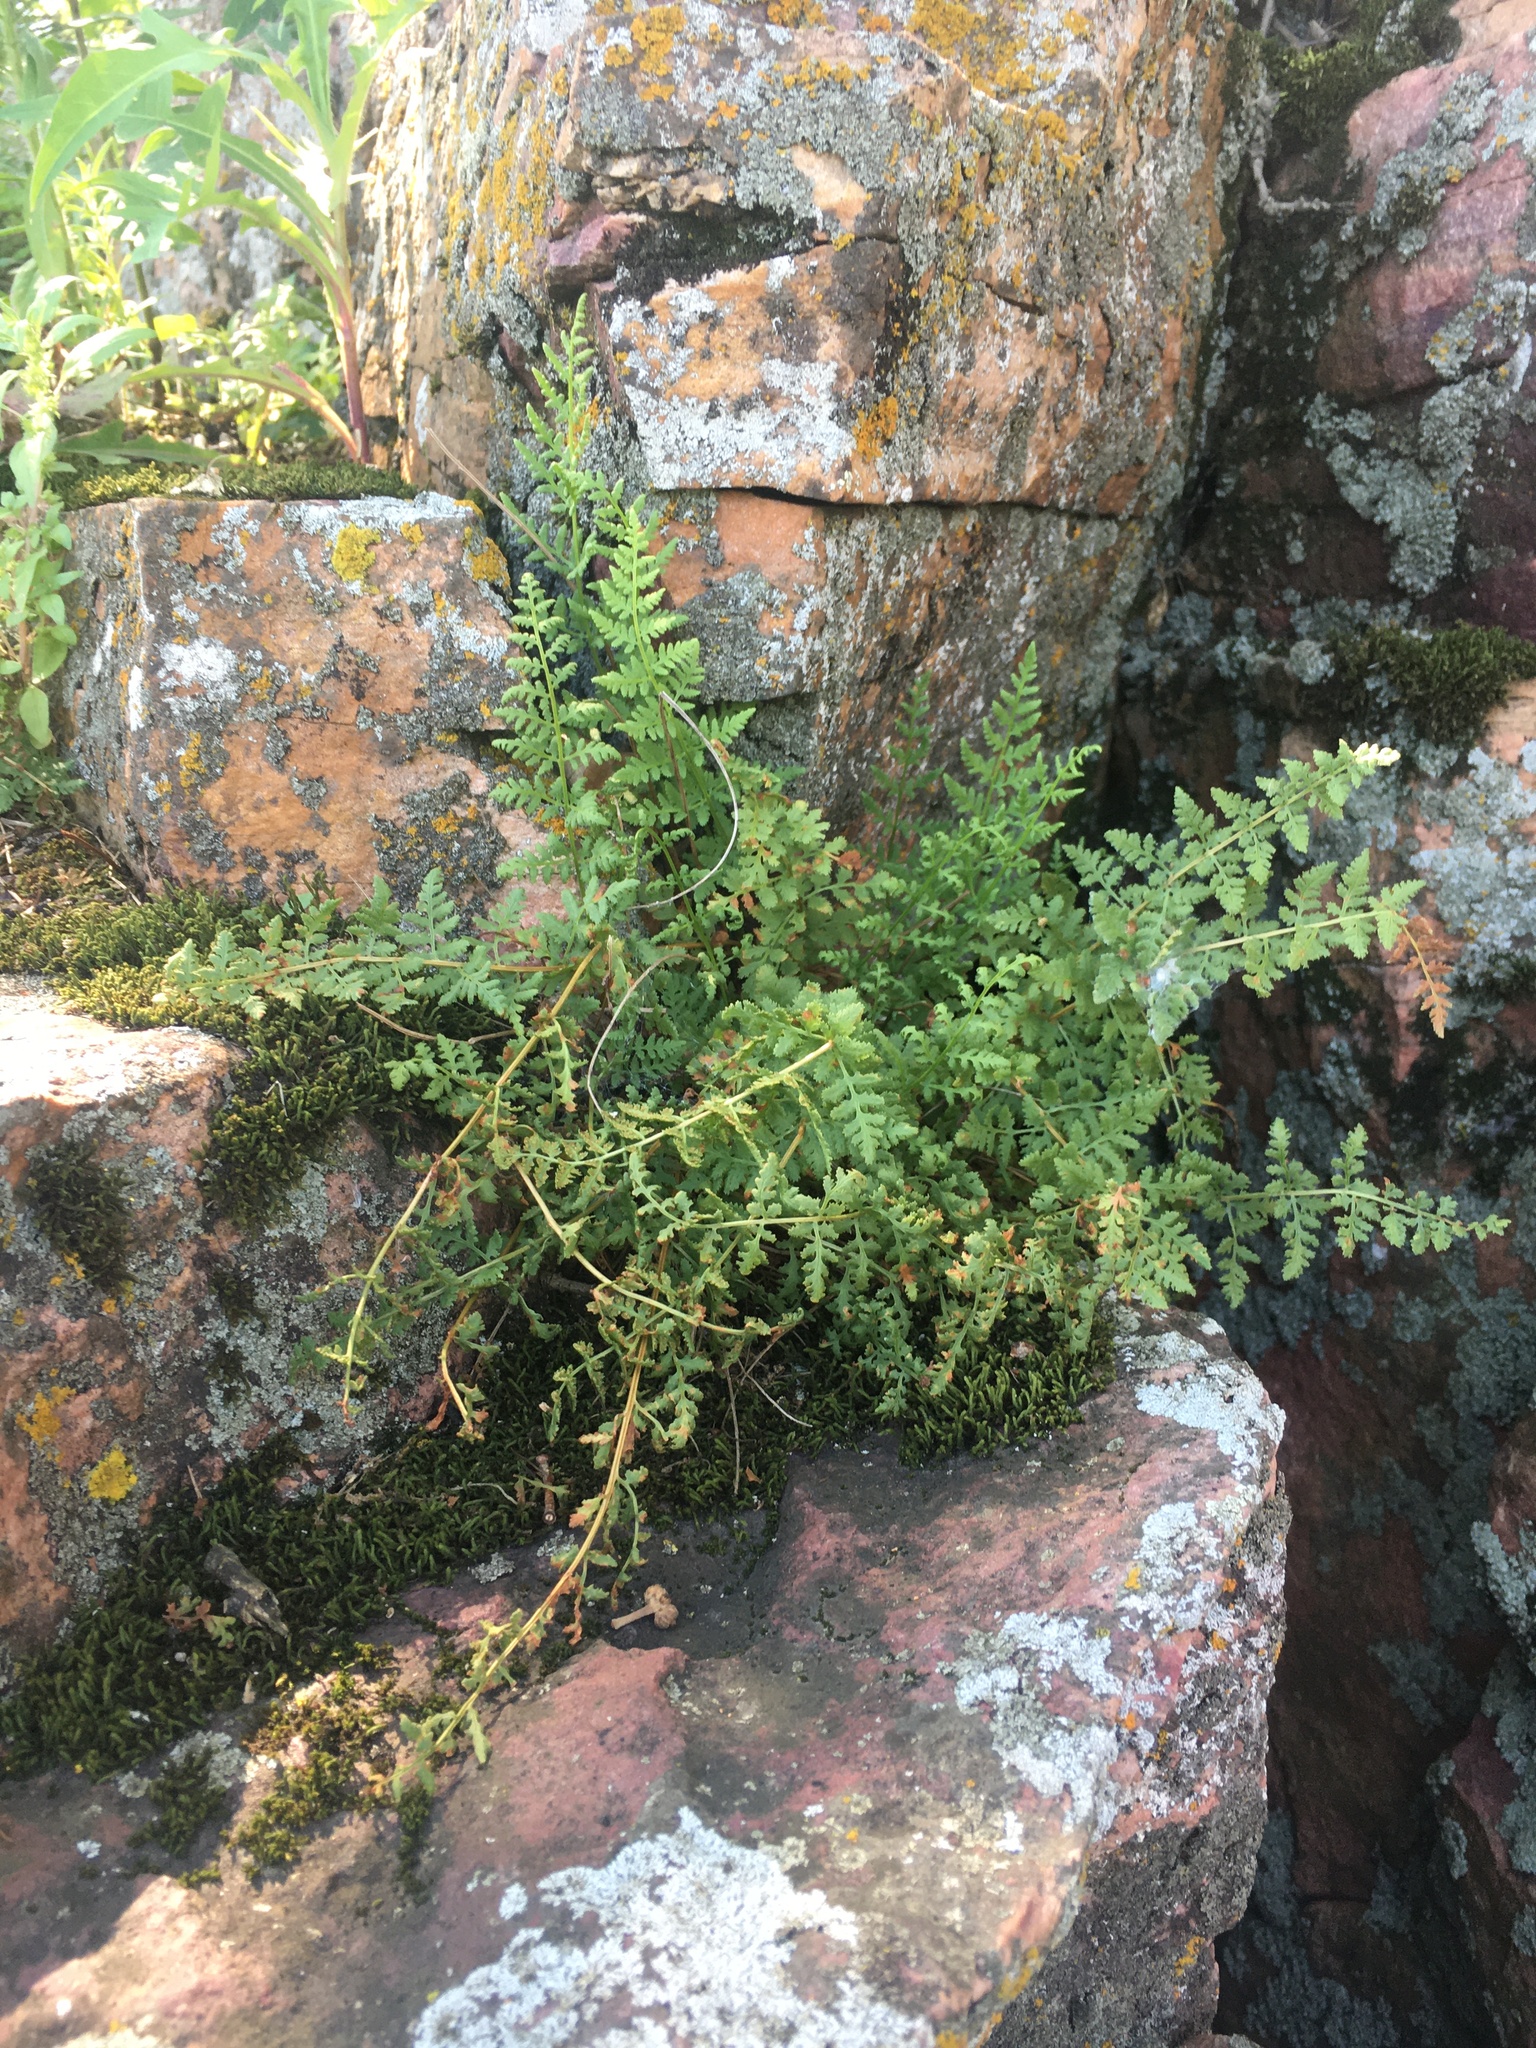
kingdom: Plantae
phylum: Tracheophyta
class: Polypodiopsida
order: Polypodiales
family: Cystopteridaceae
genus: Cystopteris
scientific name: Cystopteris fragilis
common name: Brittle bladder fern
